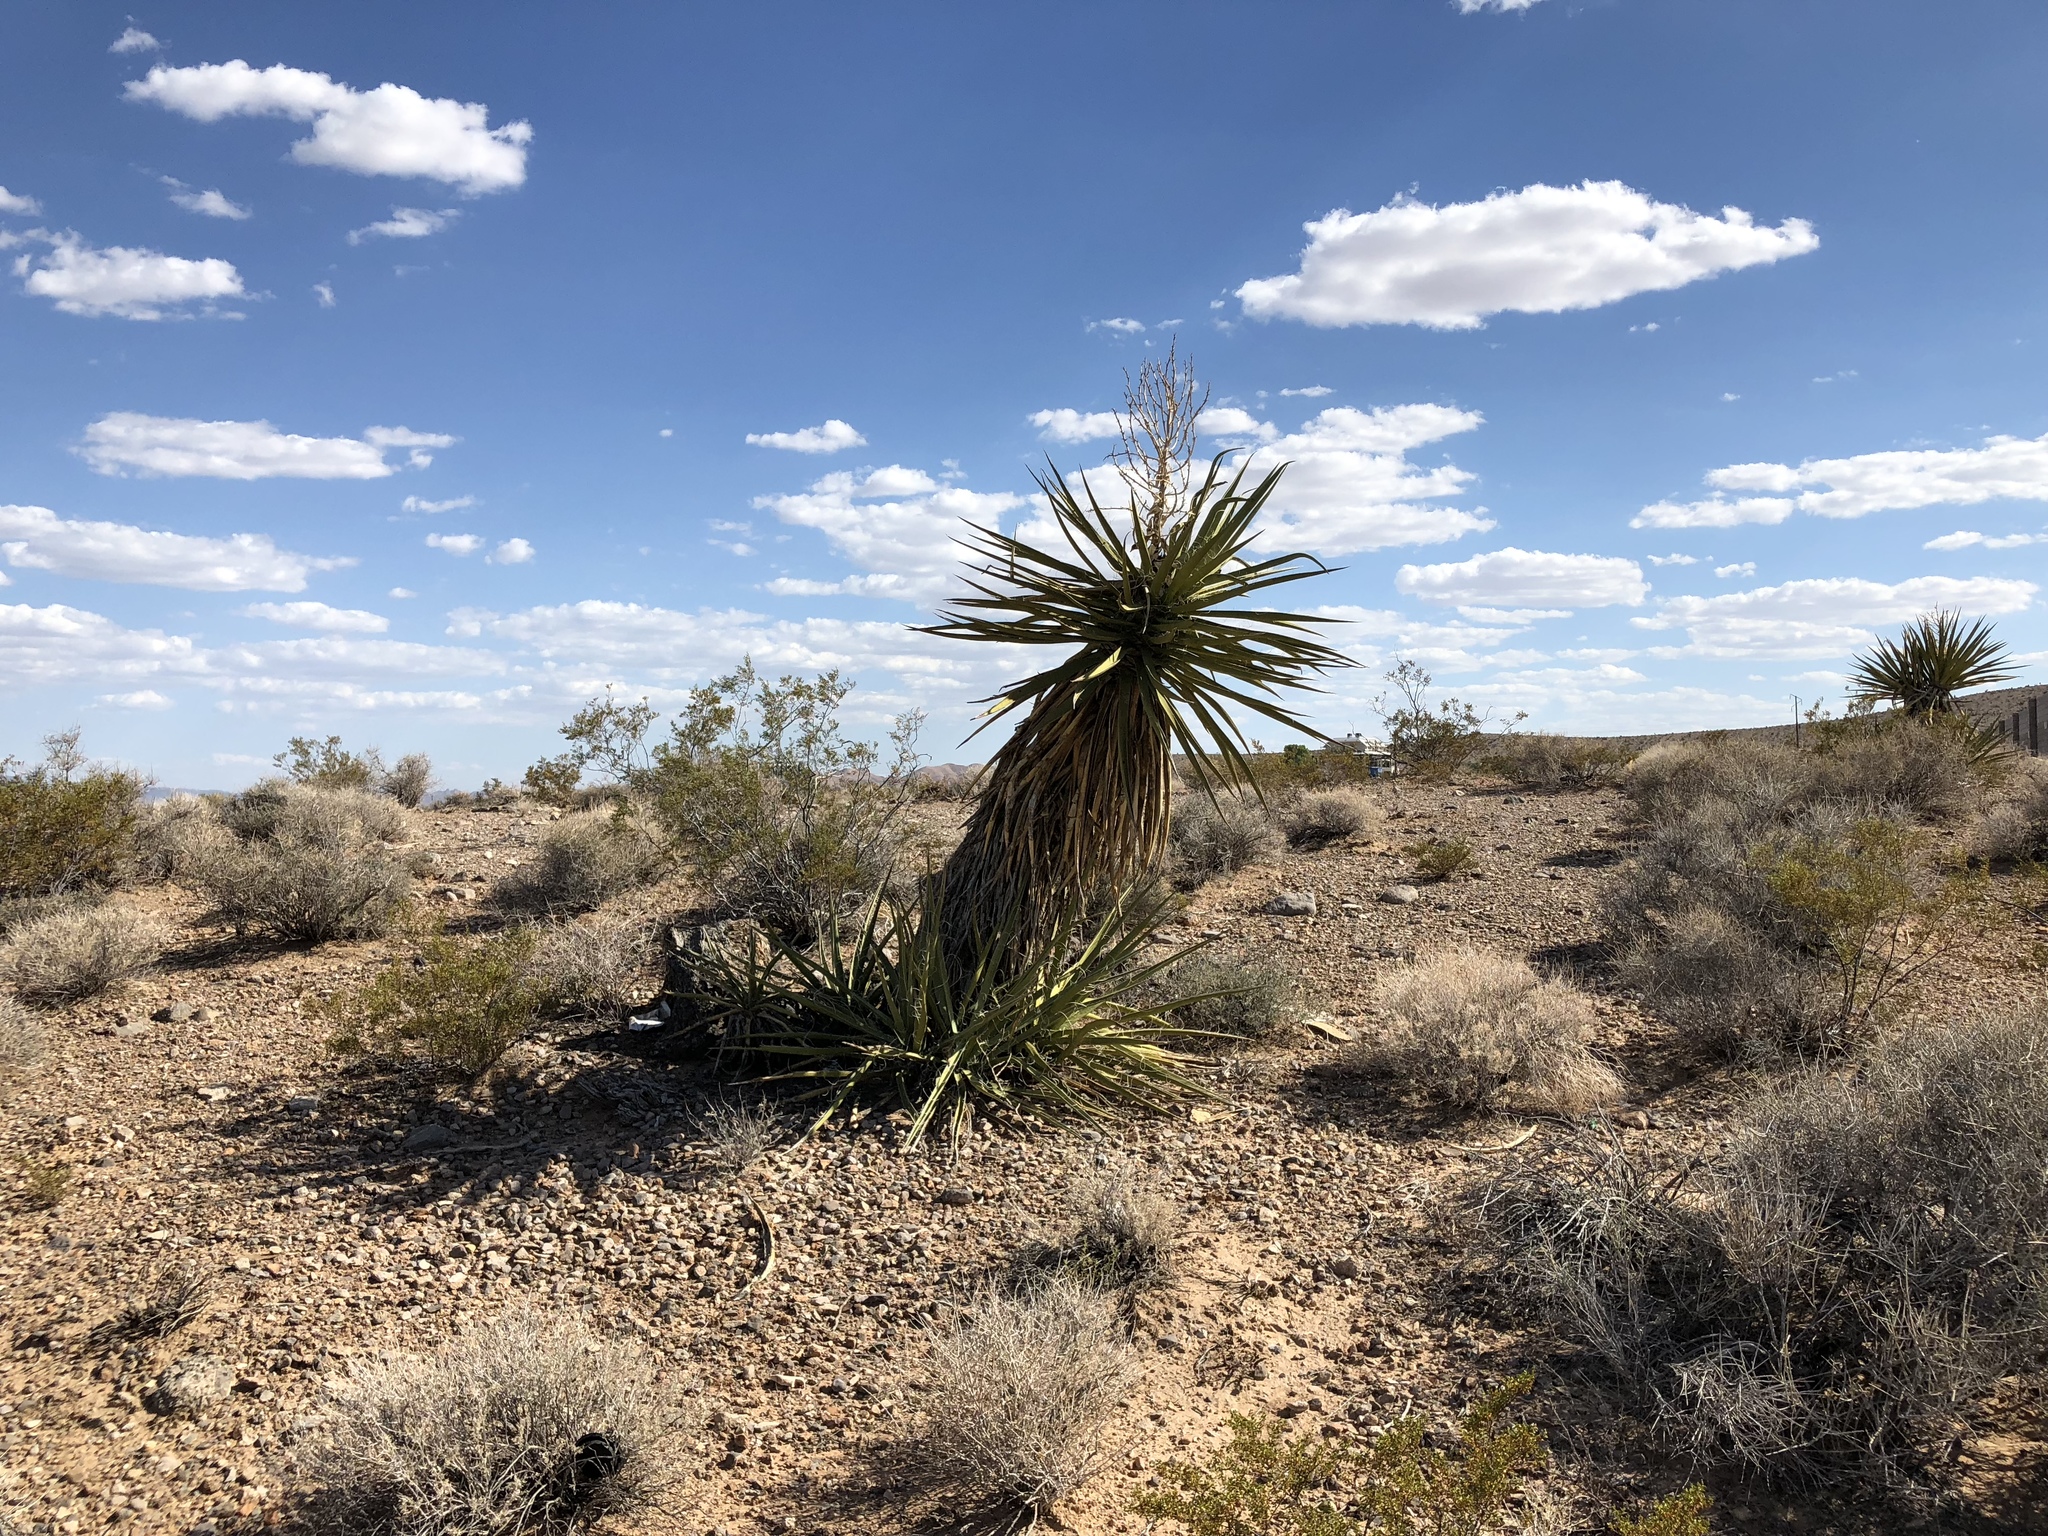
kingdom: Plantae
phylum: Tracheophyta
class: Liliopsida
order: Asparagales
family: Asparagaceae
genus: Yucca
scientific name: Yucca schidigera
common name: Mojave yucca
